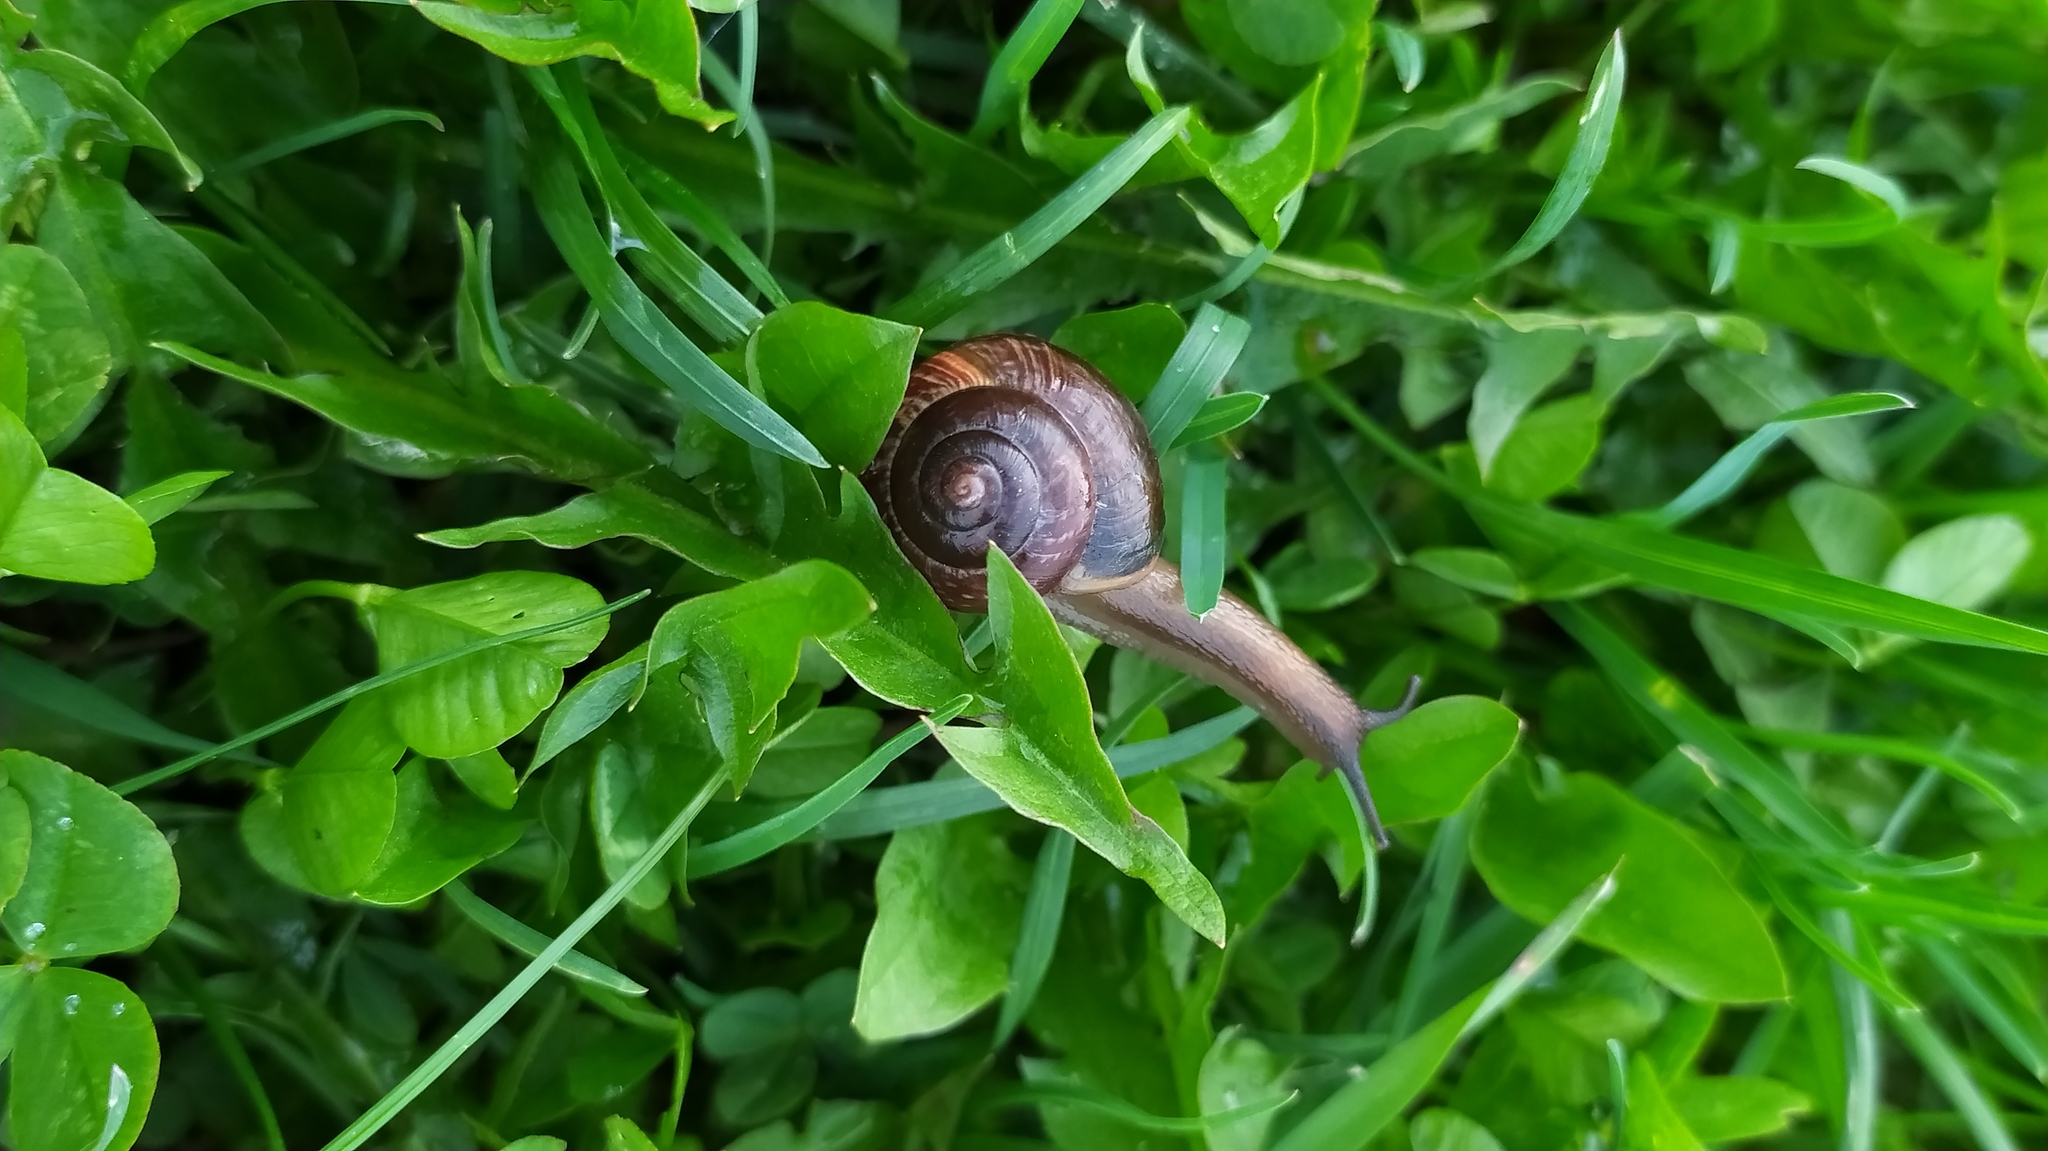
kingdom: Animalia
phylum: Mollusca
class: Gastropoda
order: Stylommatophora
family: Helicidae
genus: Arianta
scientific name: Arianta arbustorum
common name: Copse snail
